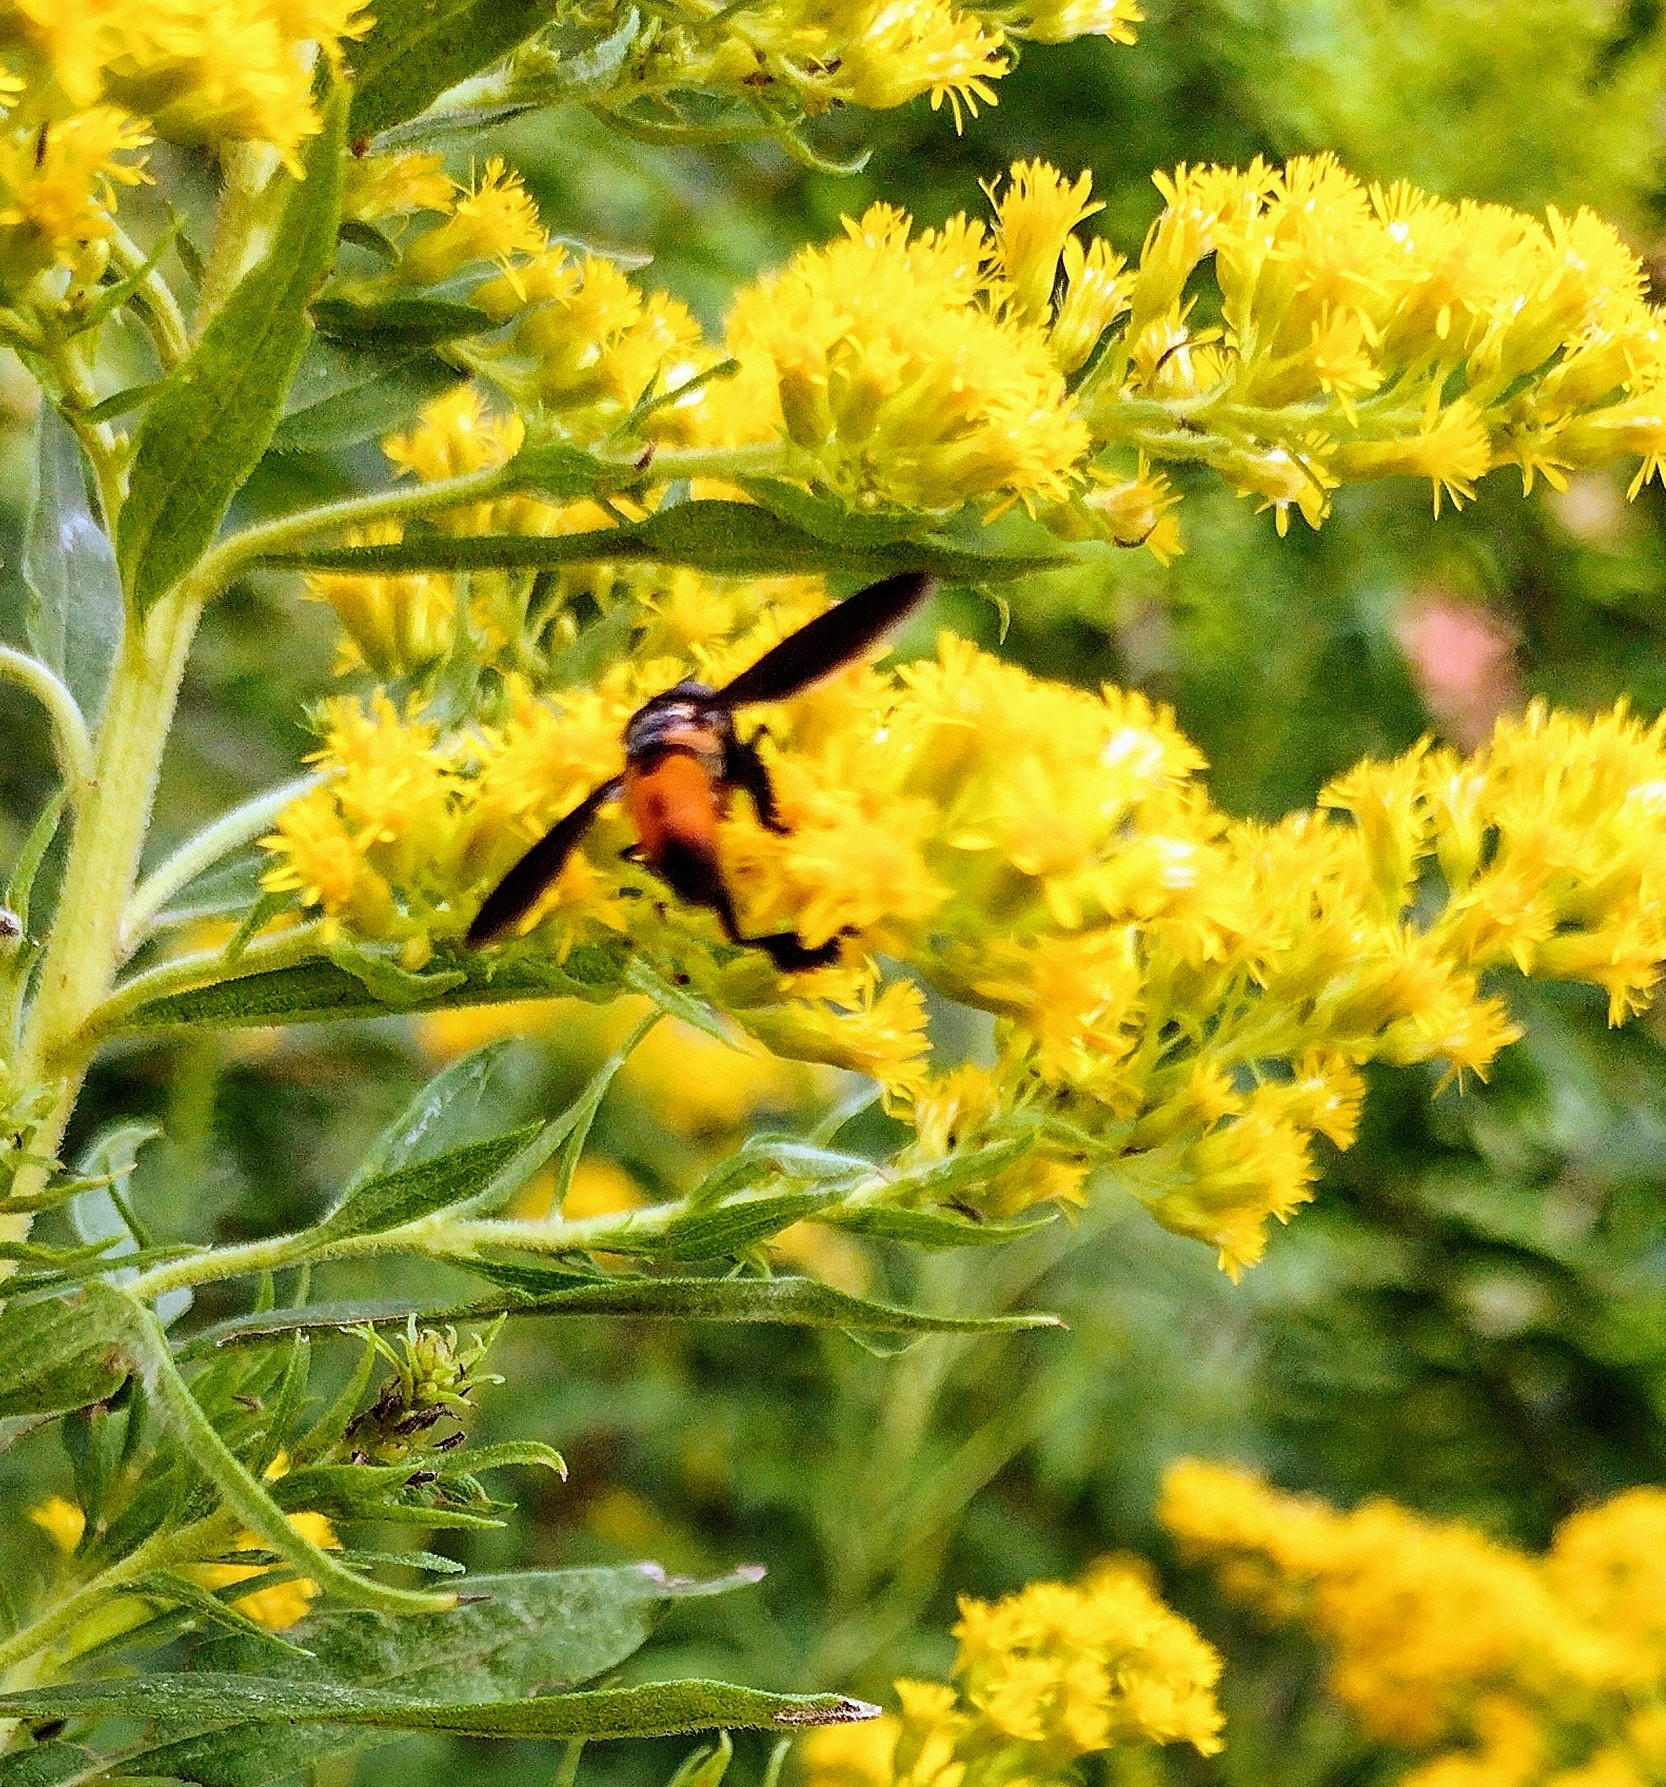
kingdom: Animalia
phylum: Arthropoda
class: Insecta
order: Diptera
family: Tachinidae
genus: Trichopoda
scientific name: Trichopoda pennipes
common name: Tachinid fly
